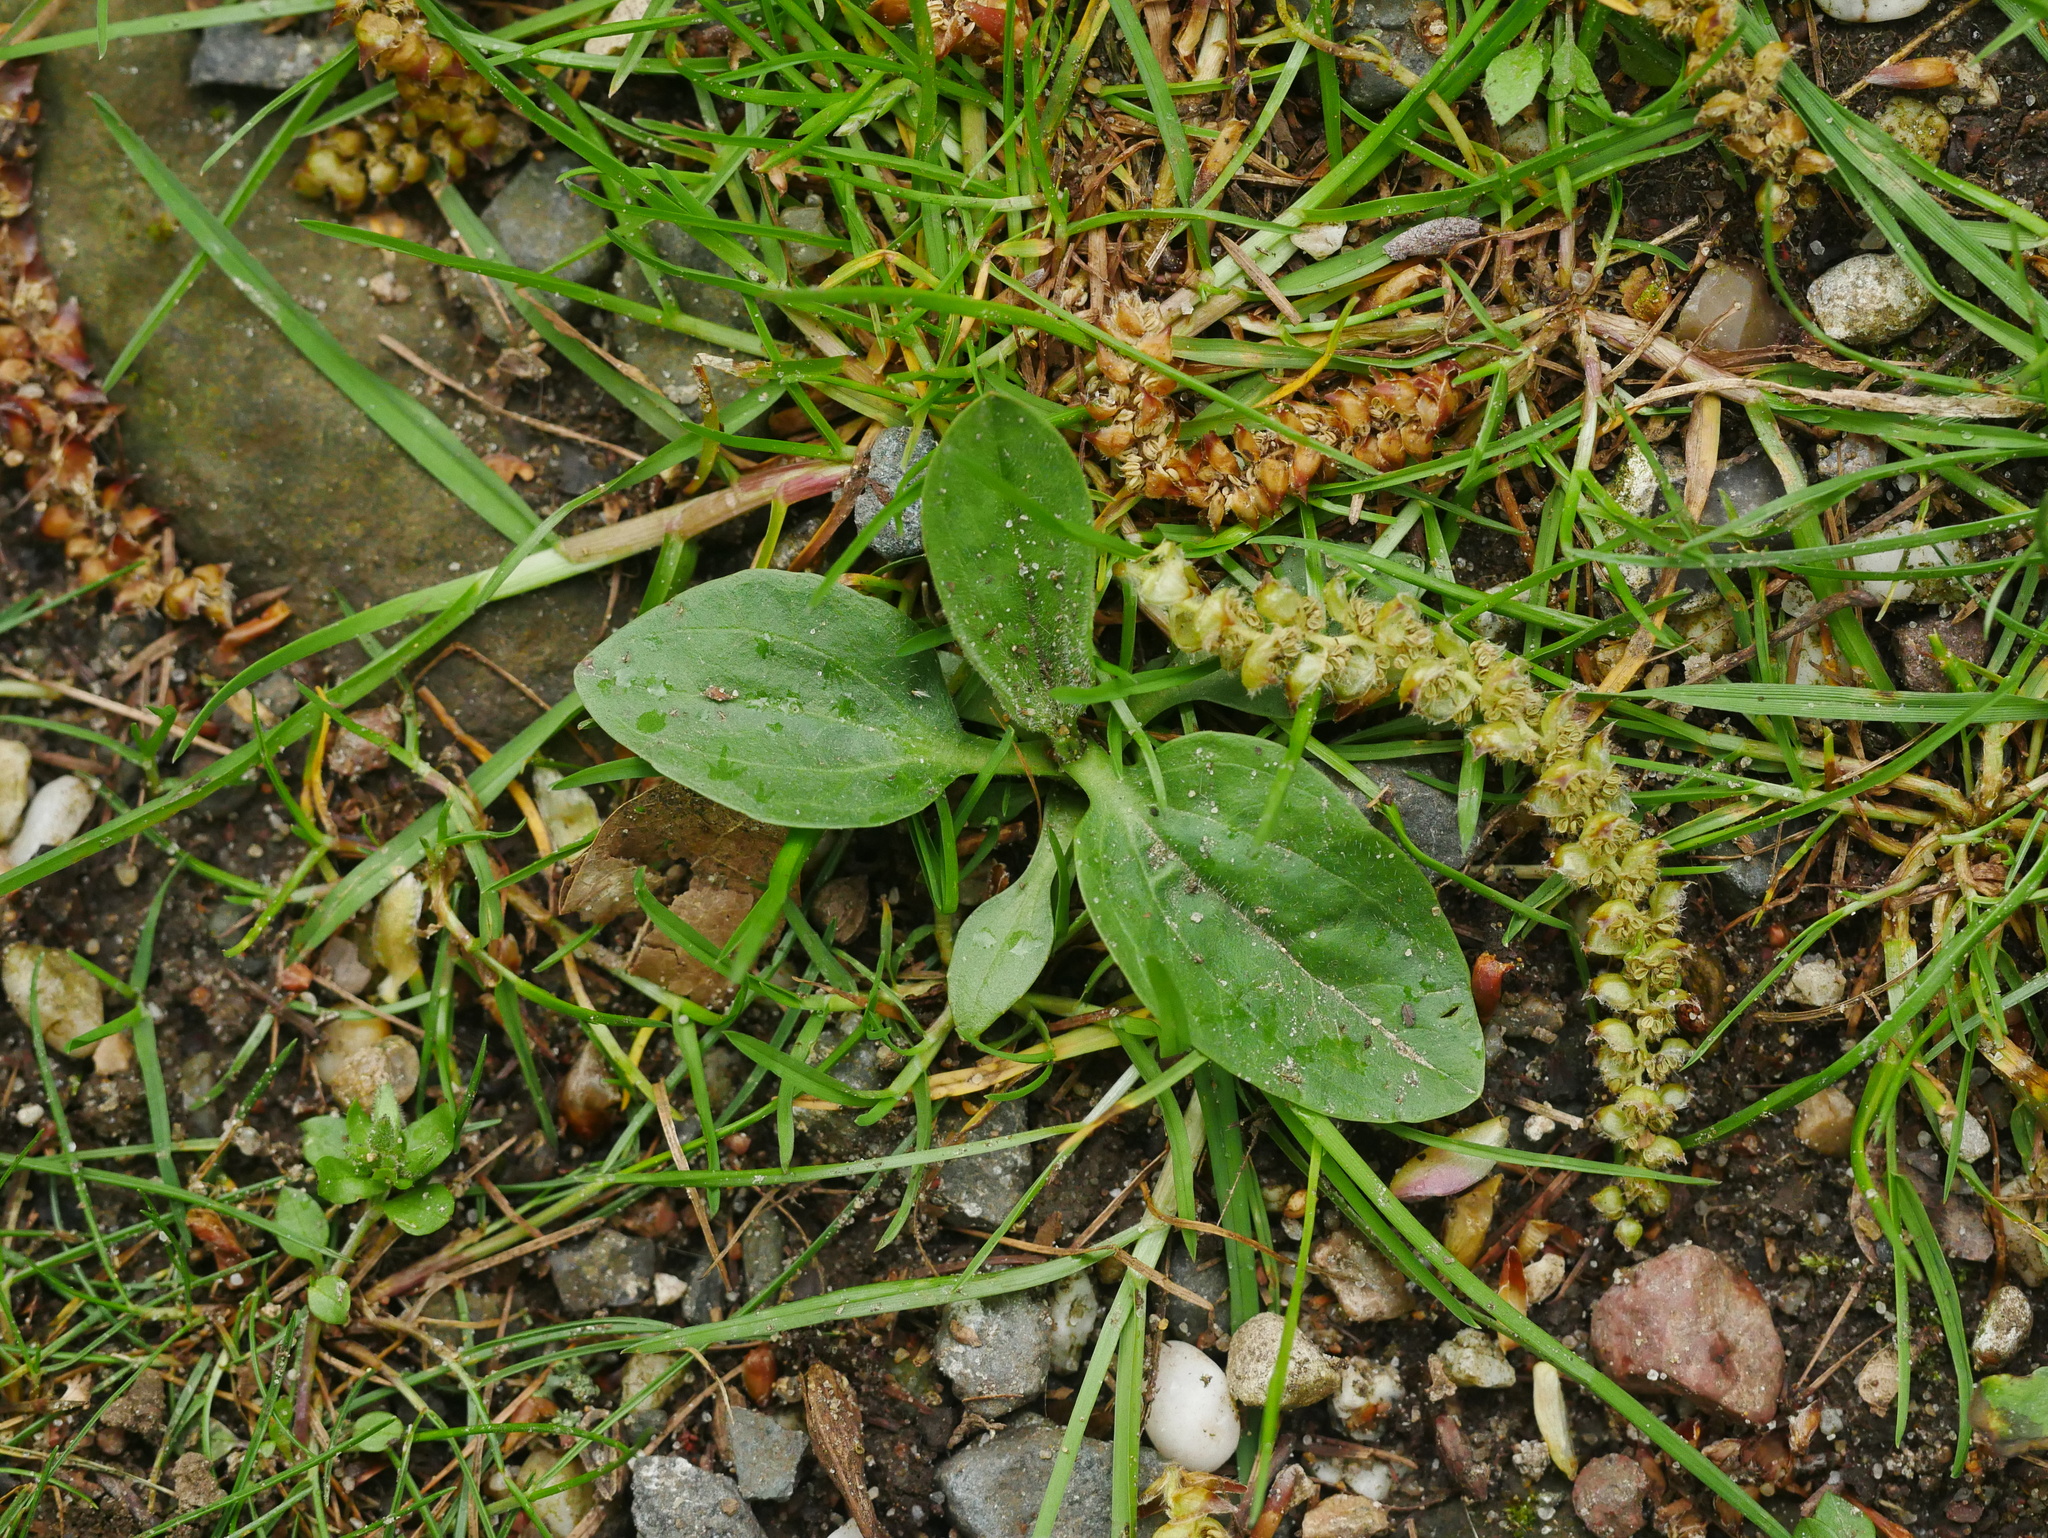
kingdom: Plantae
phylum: Tracheophyta
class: Magnoliopsida
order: Lamiales
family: Plantaginaceae
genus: Plantago
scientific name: Plantago major
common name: Common plantain
